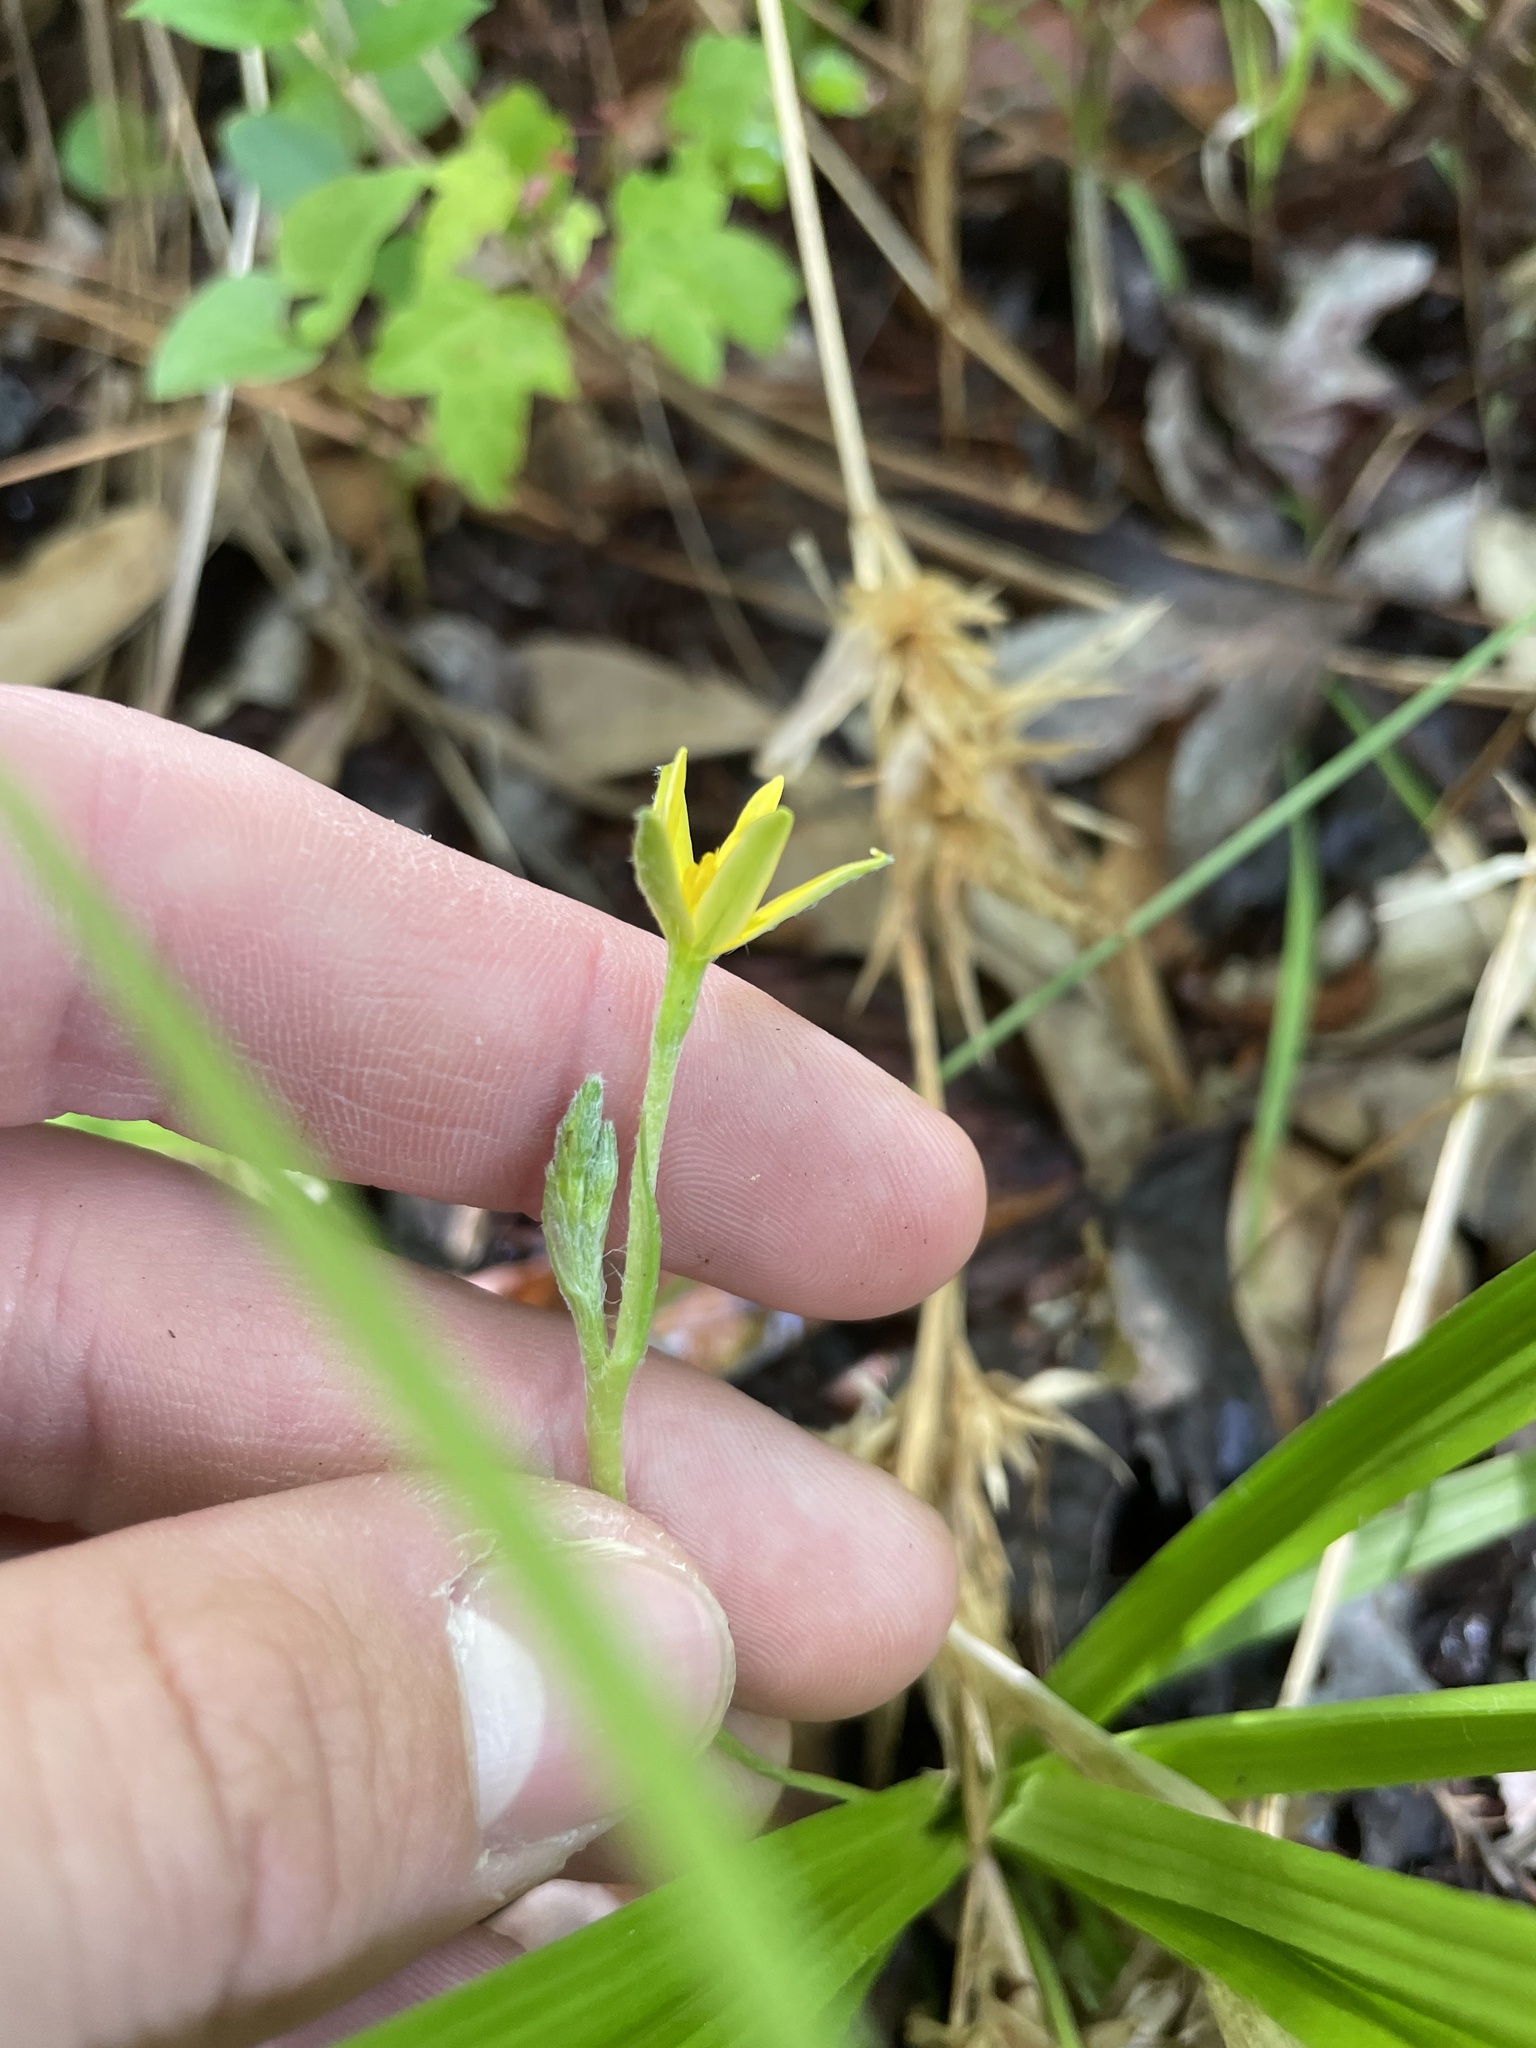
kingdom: Plantae
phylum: Tracheophyta
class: Liliopsida
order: Asparagales
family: Hypoxidaceae
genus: Hypoxis
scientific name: Hypoxis curtissii
